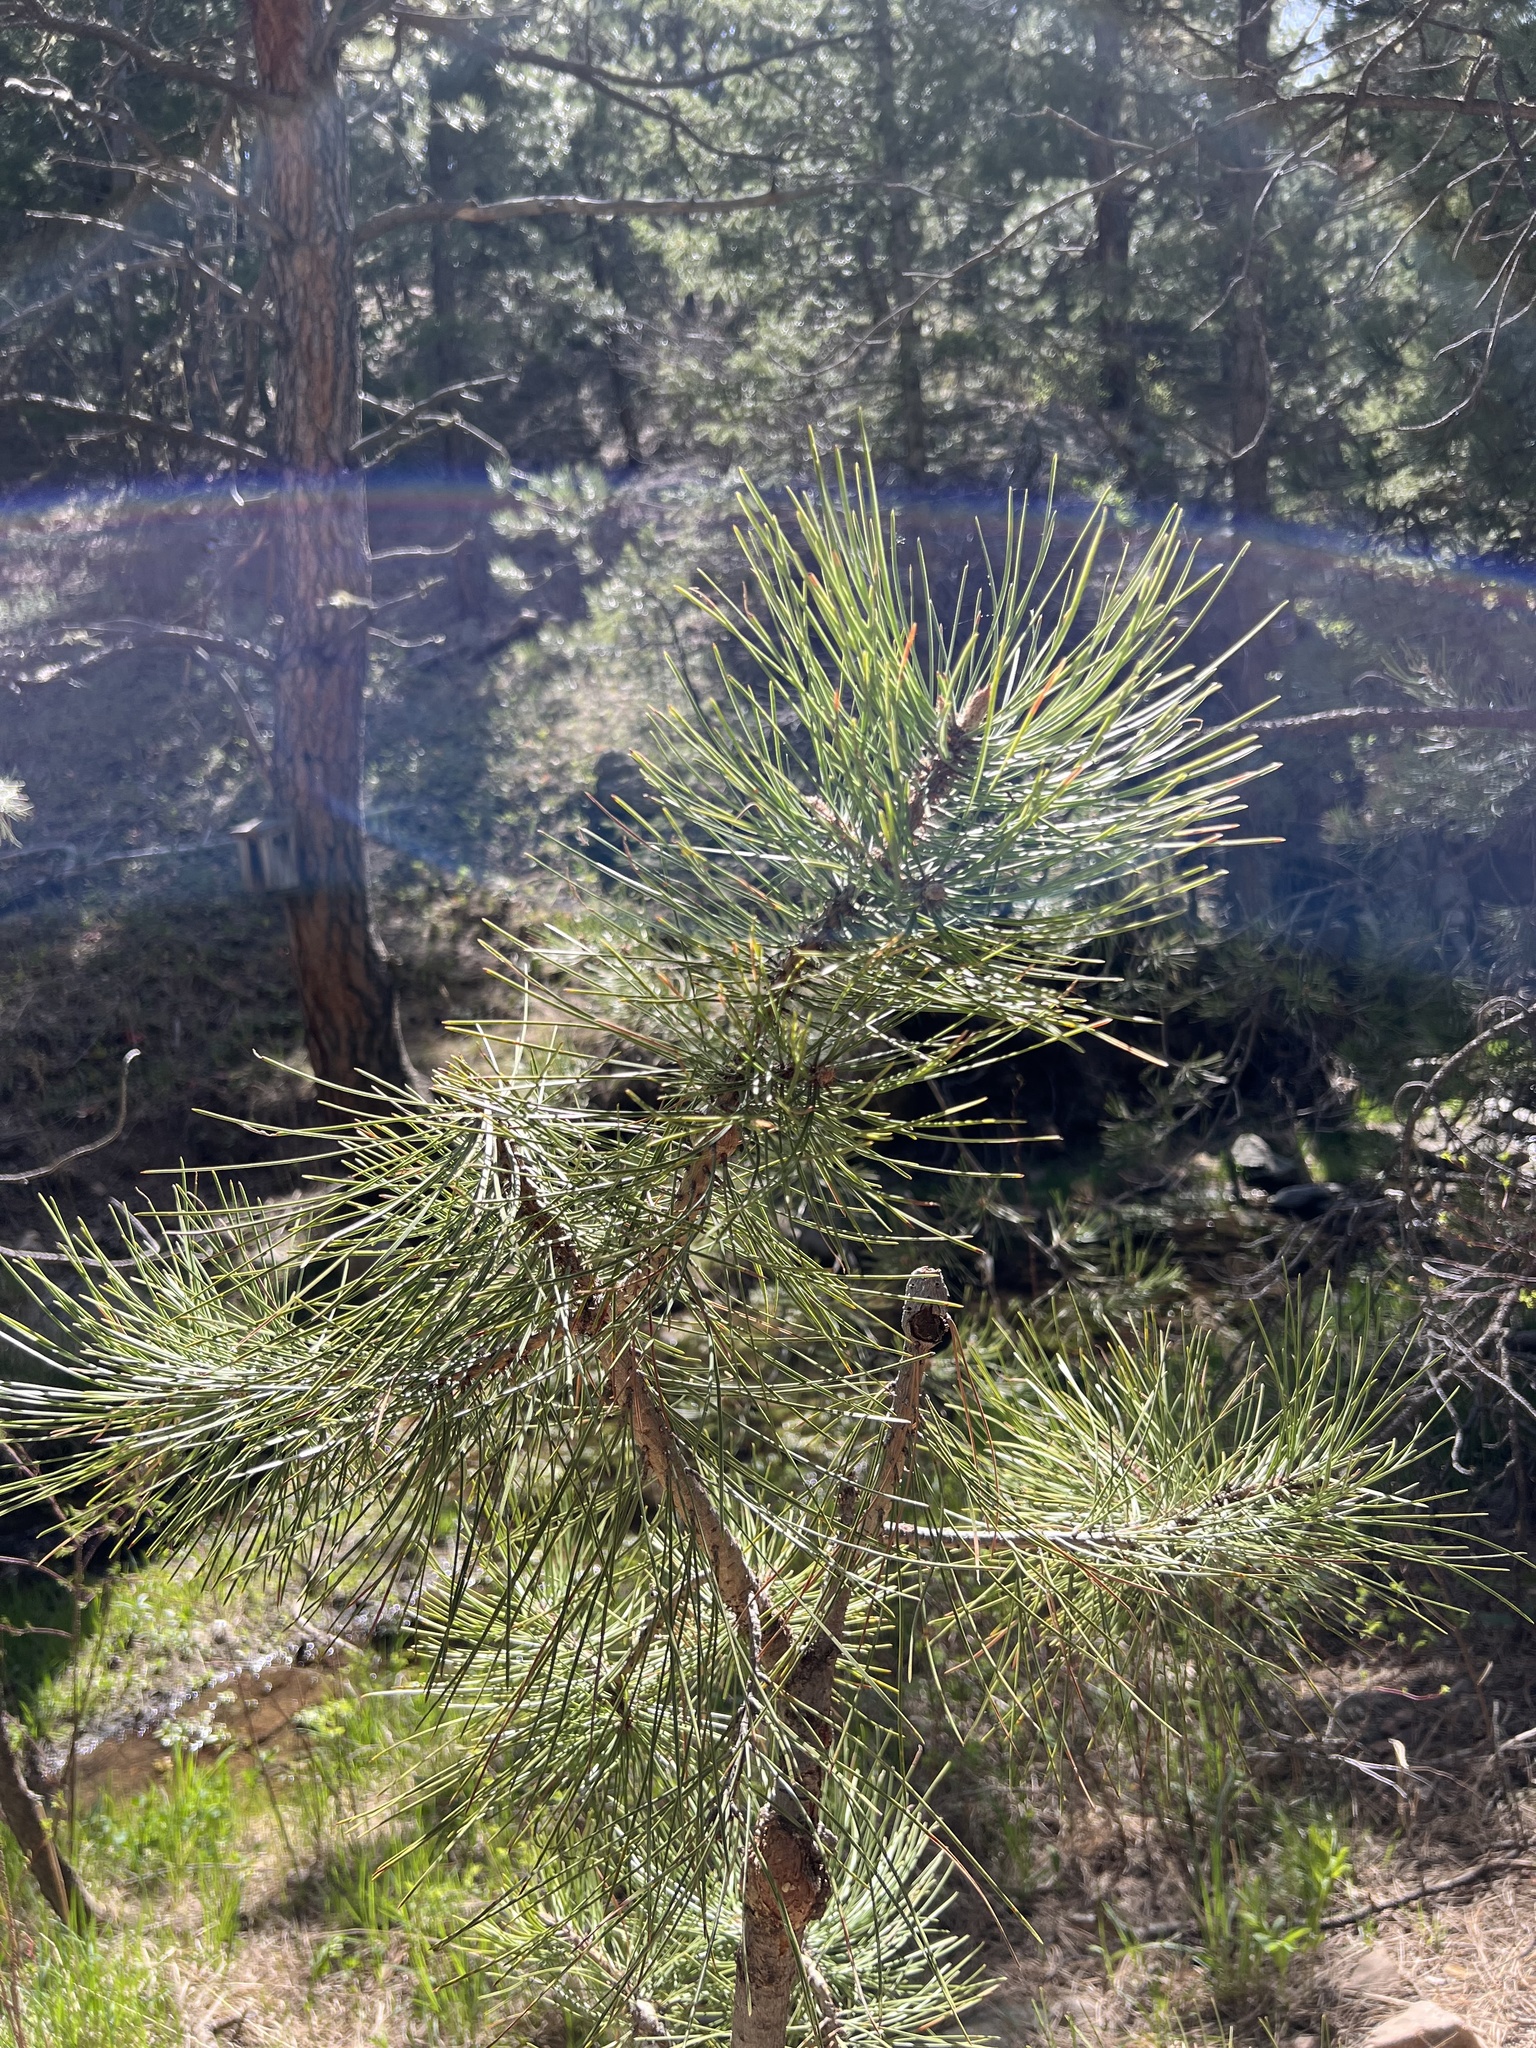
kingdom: Fungi
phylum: Basidiomycota
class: Pucciniomycetes
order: Pucciniales
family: Cronartiaceae
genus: Cronartium
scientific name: Cronartium harknessii
